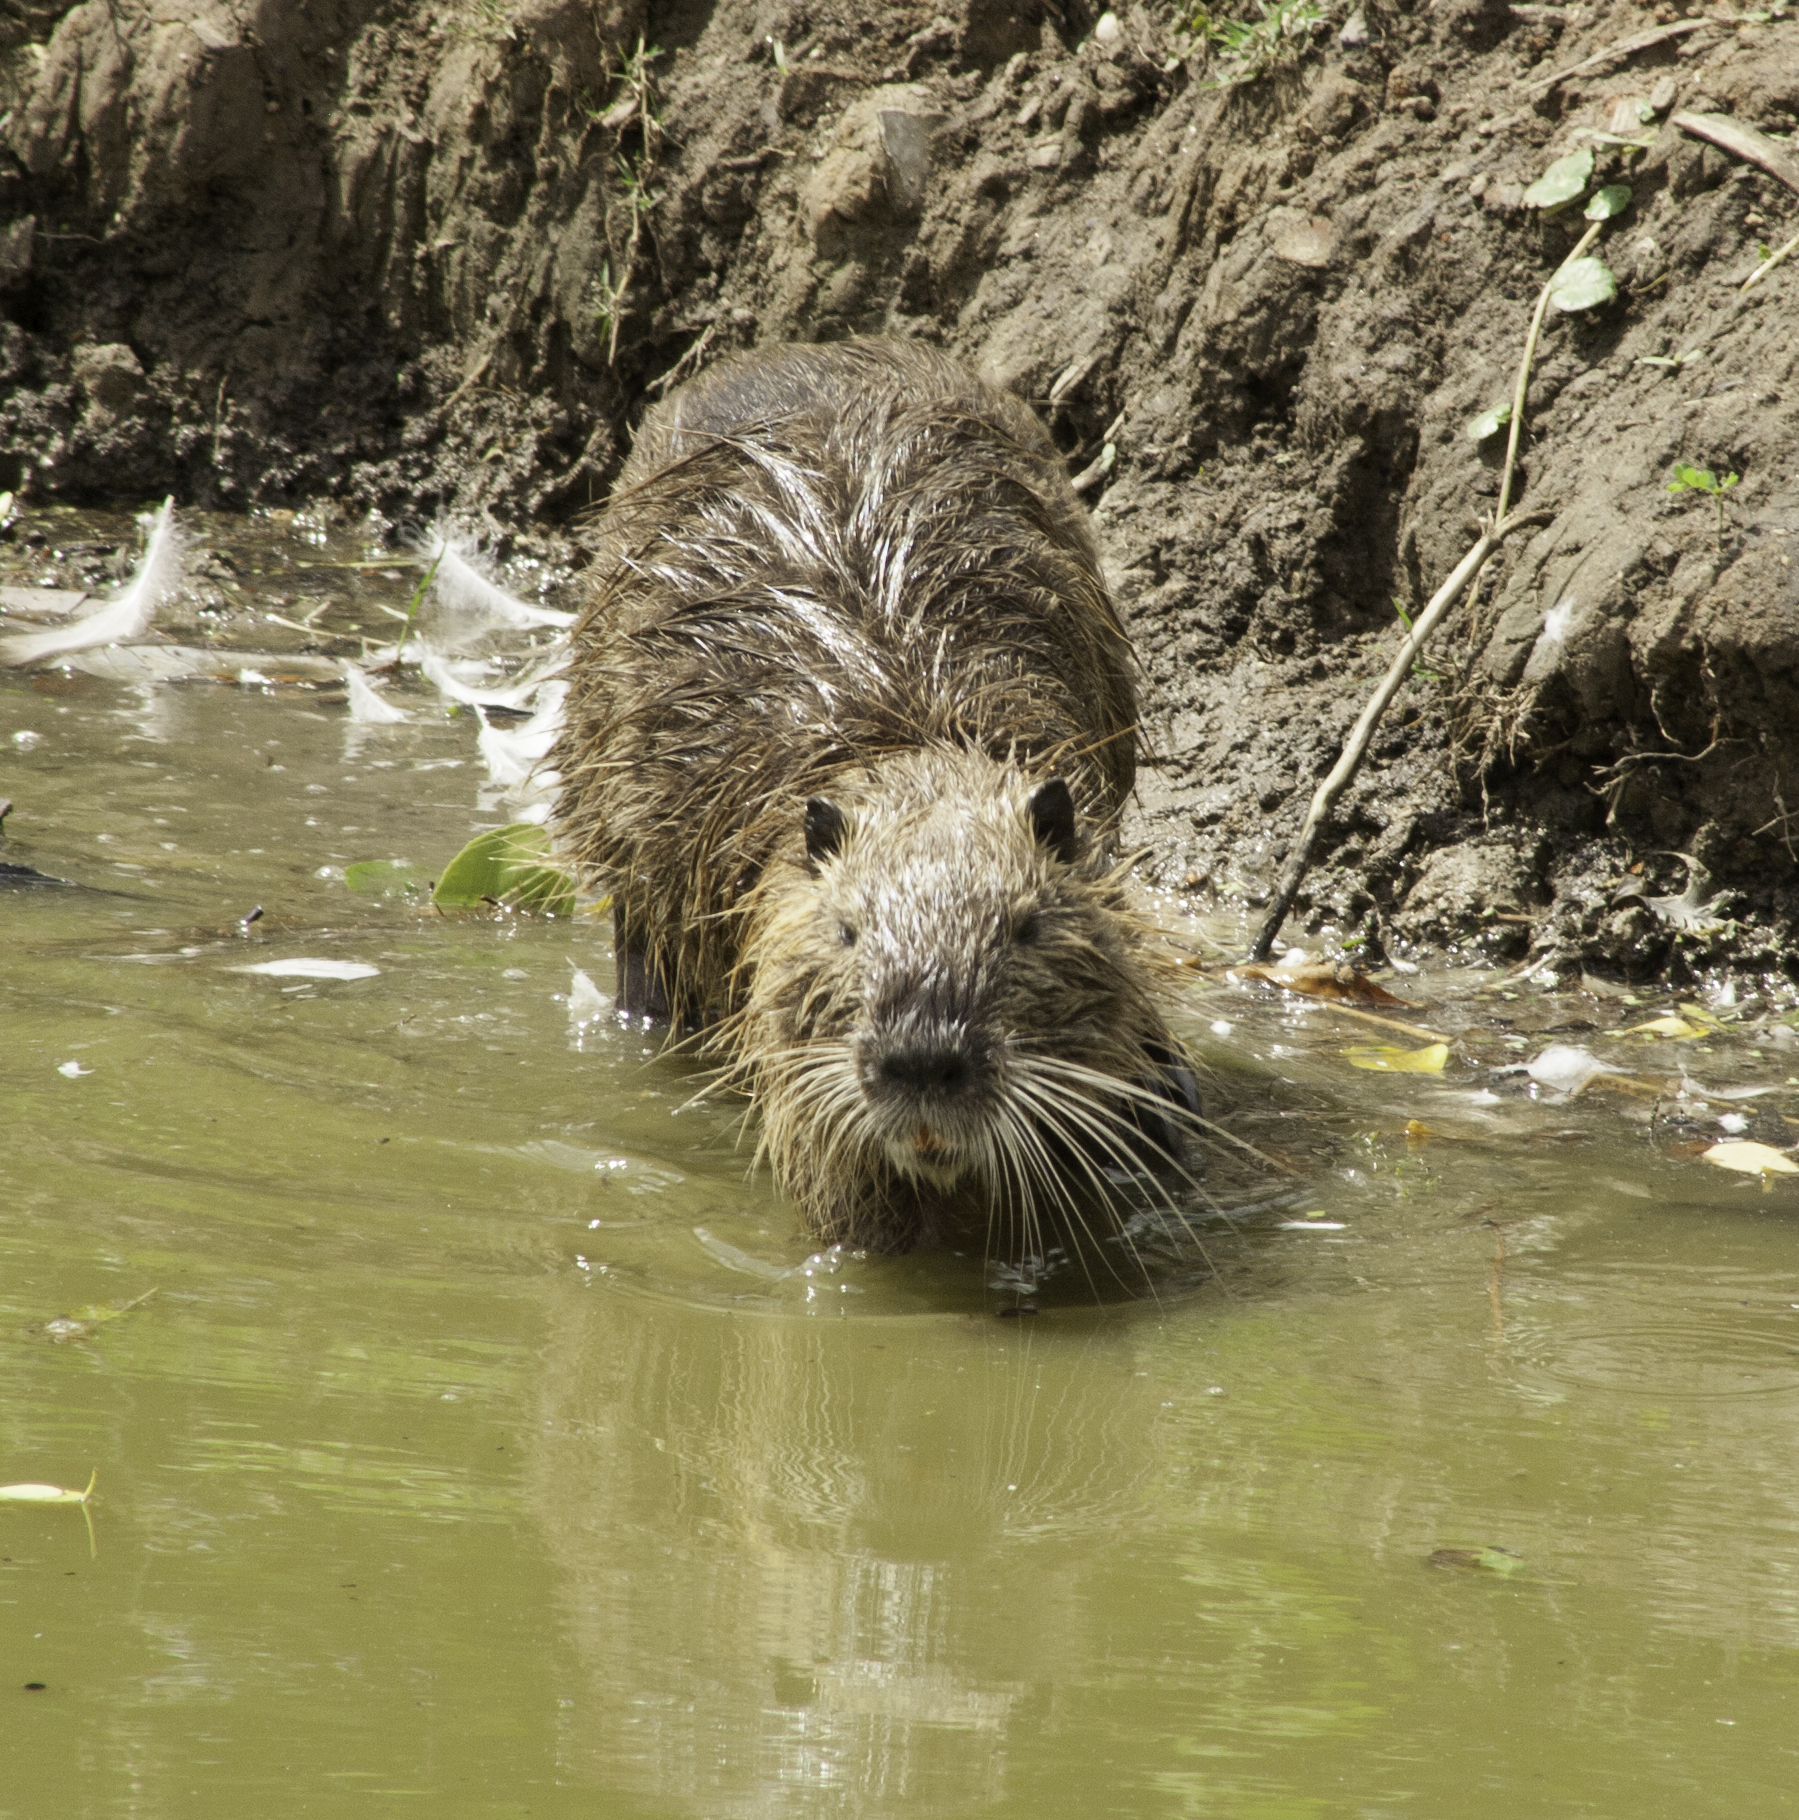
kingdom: Animalia
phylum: Chordata
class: Mammalia
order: Rodentia
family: Myocastoridae
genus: Myocastor
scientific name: Myocastor coypus
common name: Coypu
